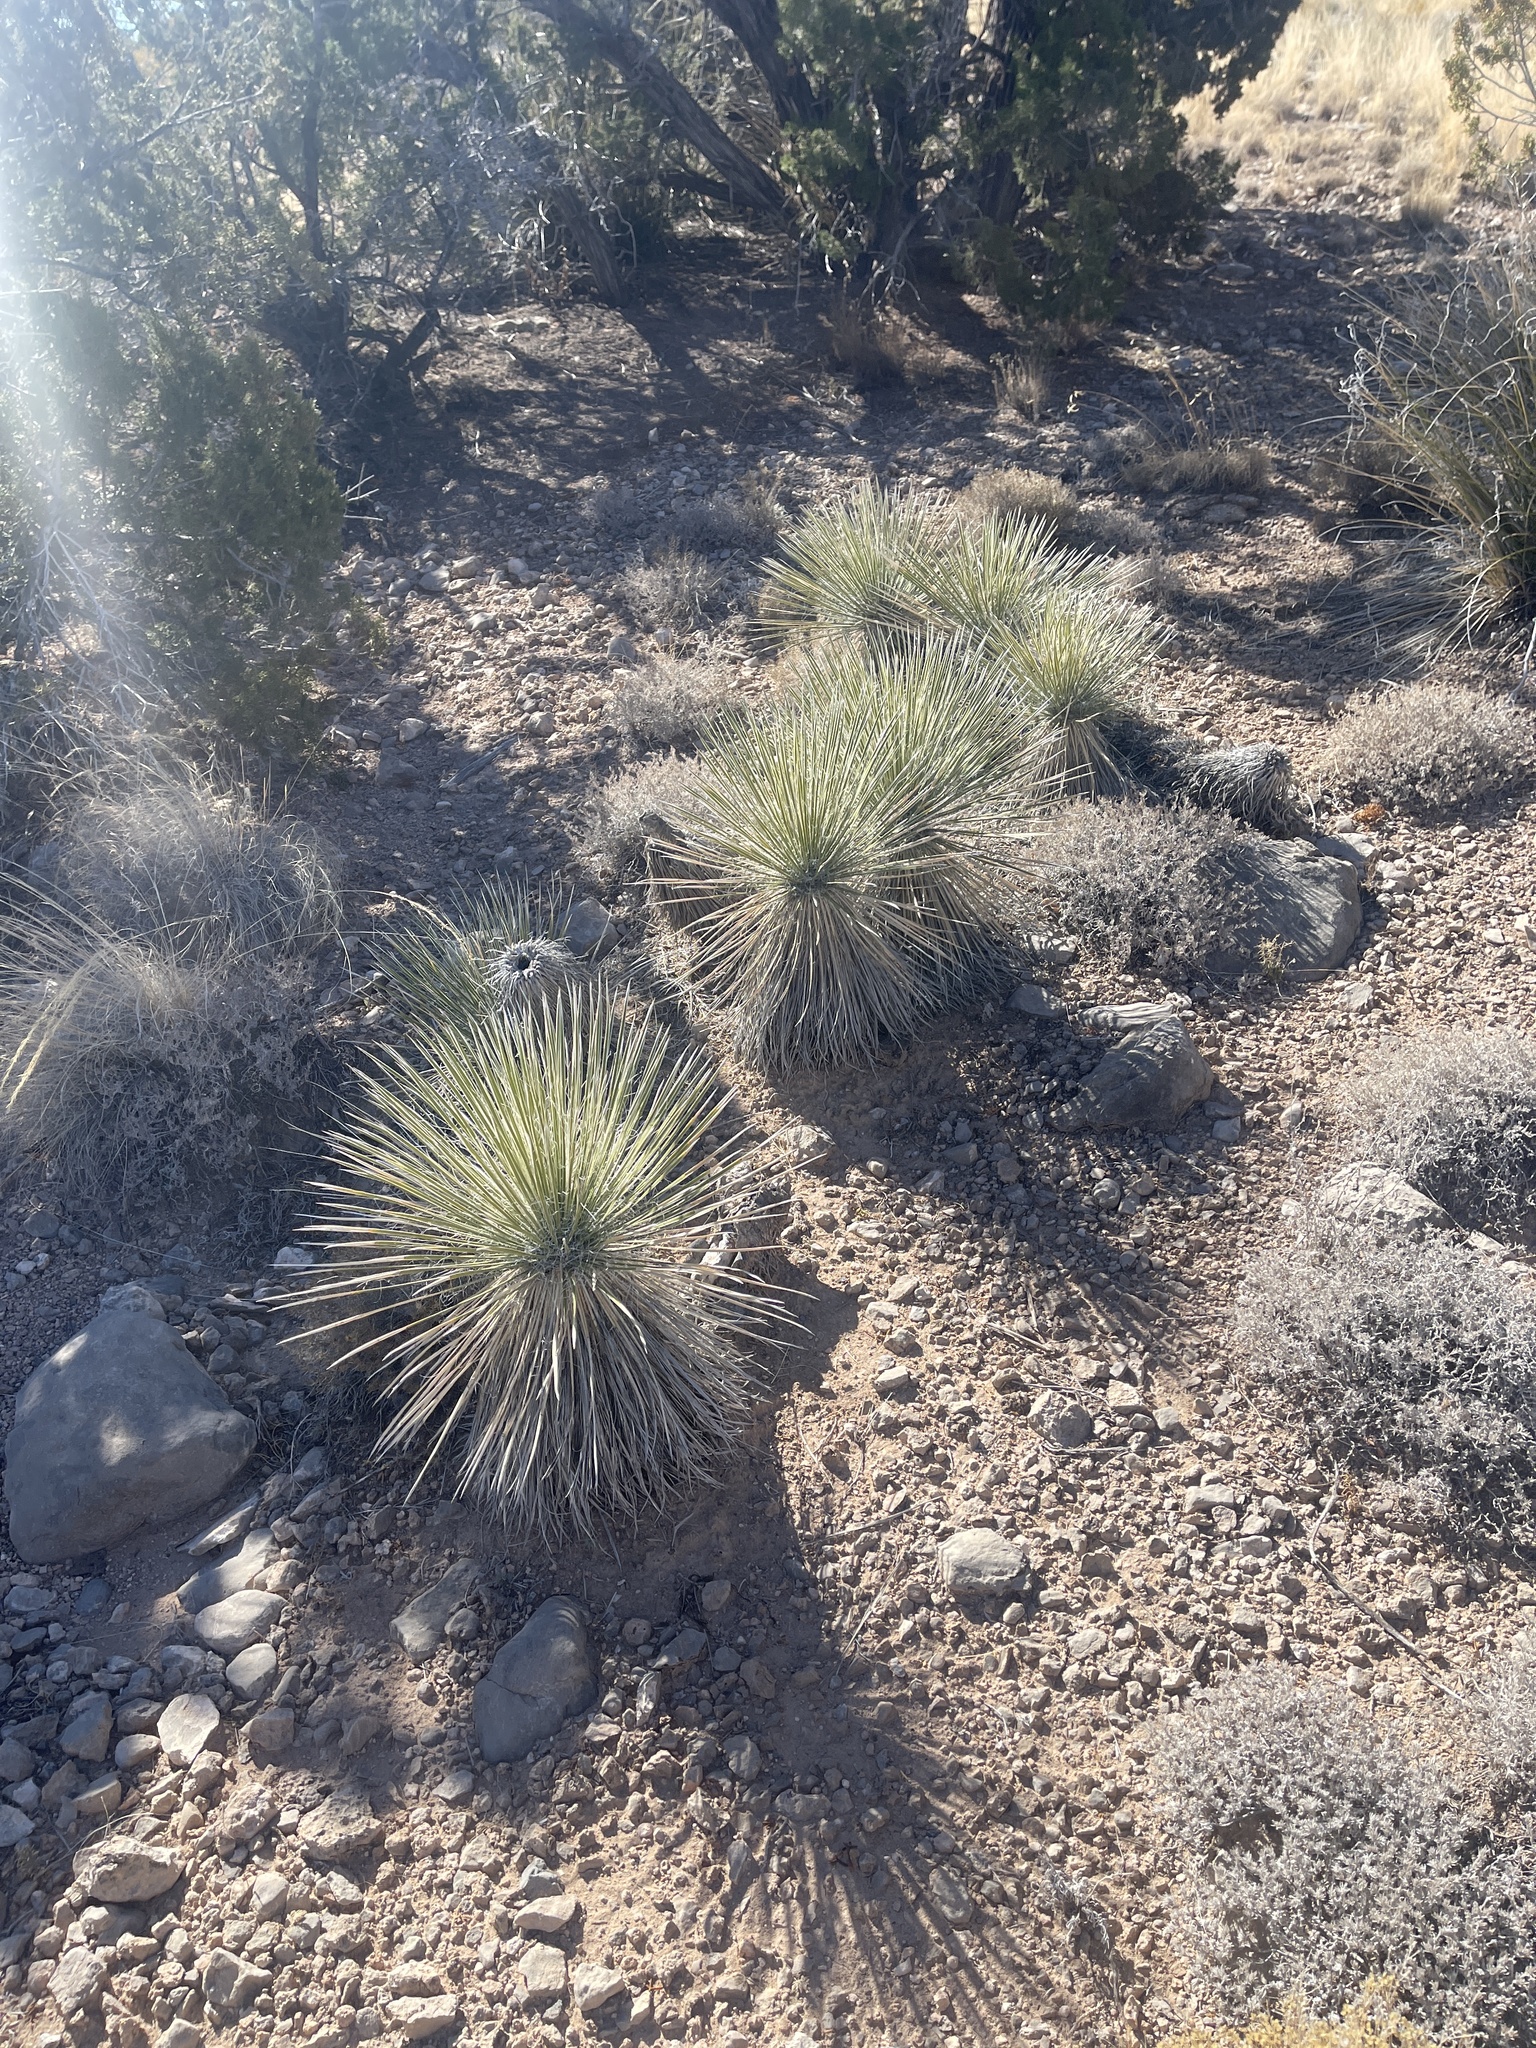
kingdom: Plantae
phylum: Tracheophyta
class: Liliopsida
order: Asparagales
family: Asparagaceae
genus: Yucca
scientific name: Yucca elata
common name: Palmella
